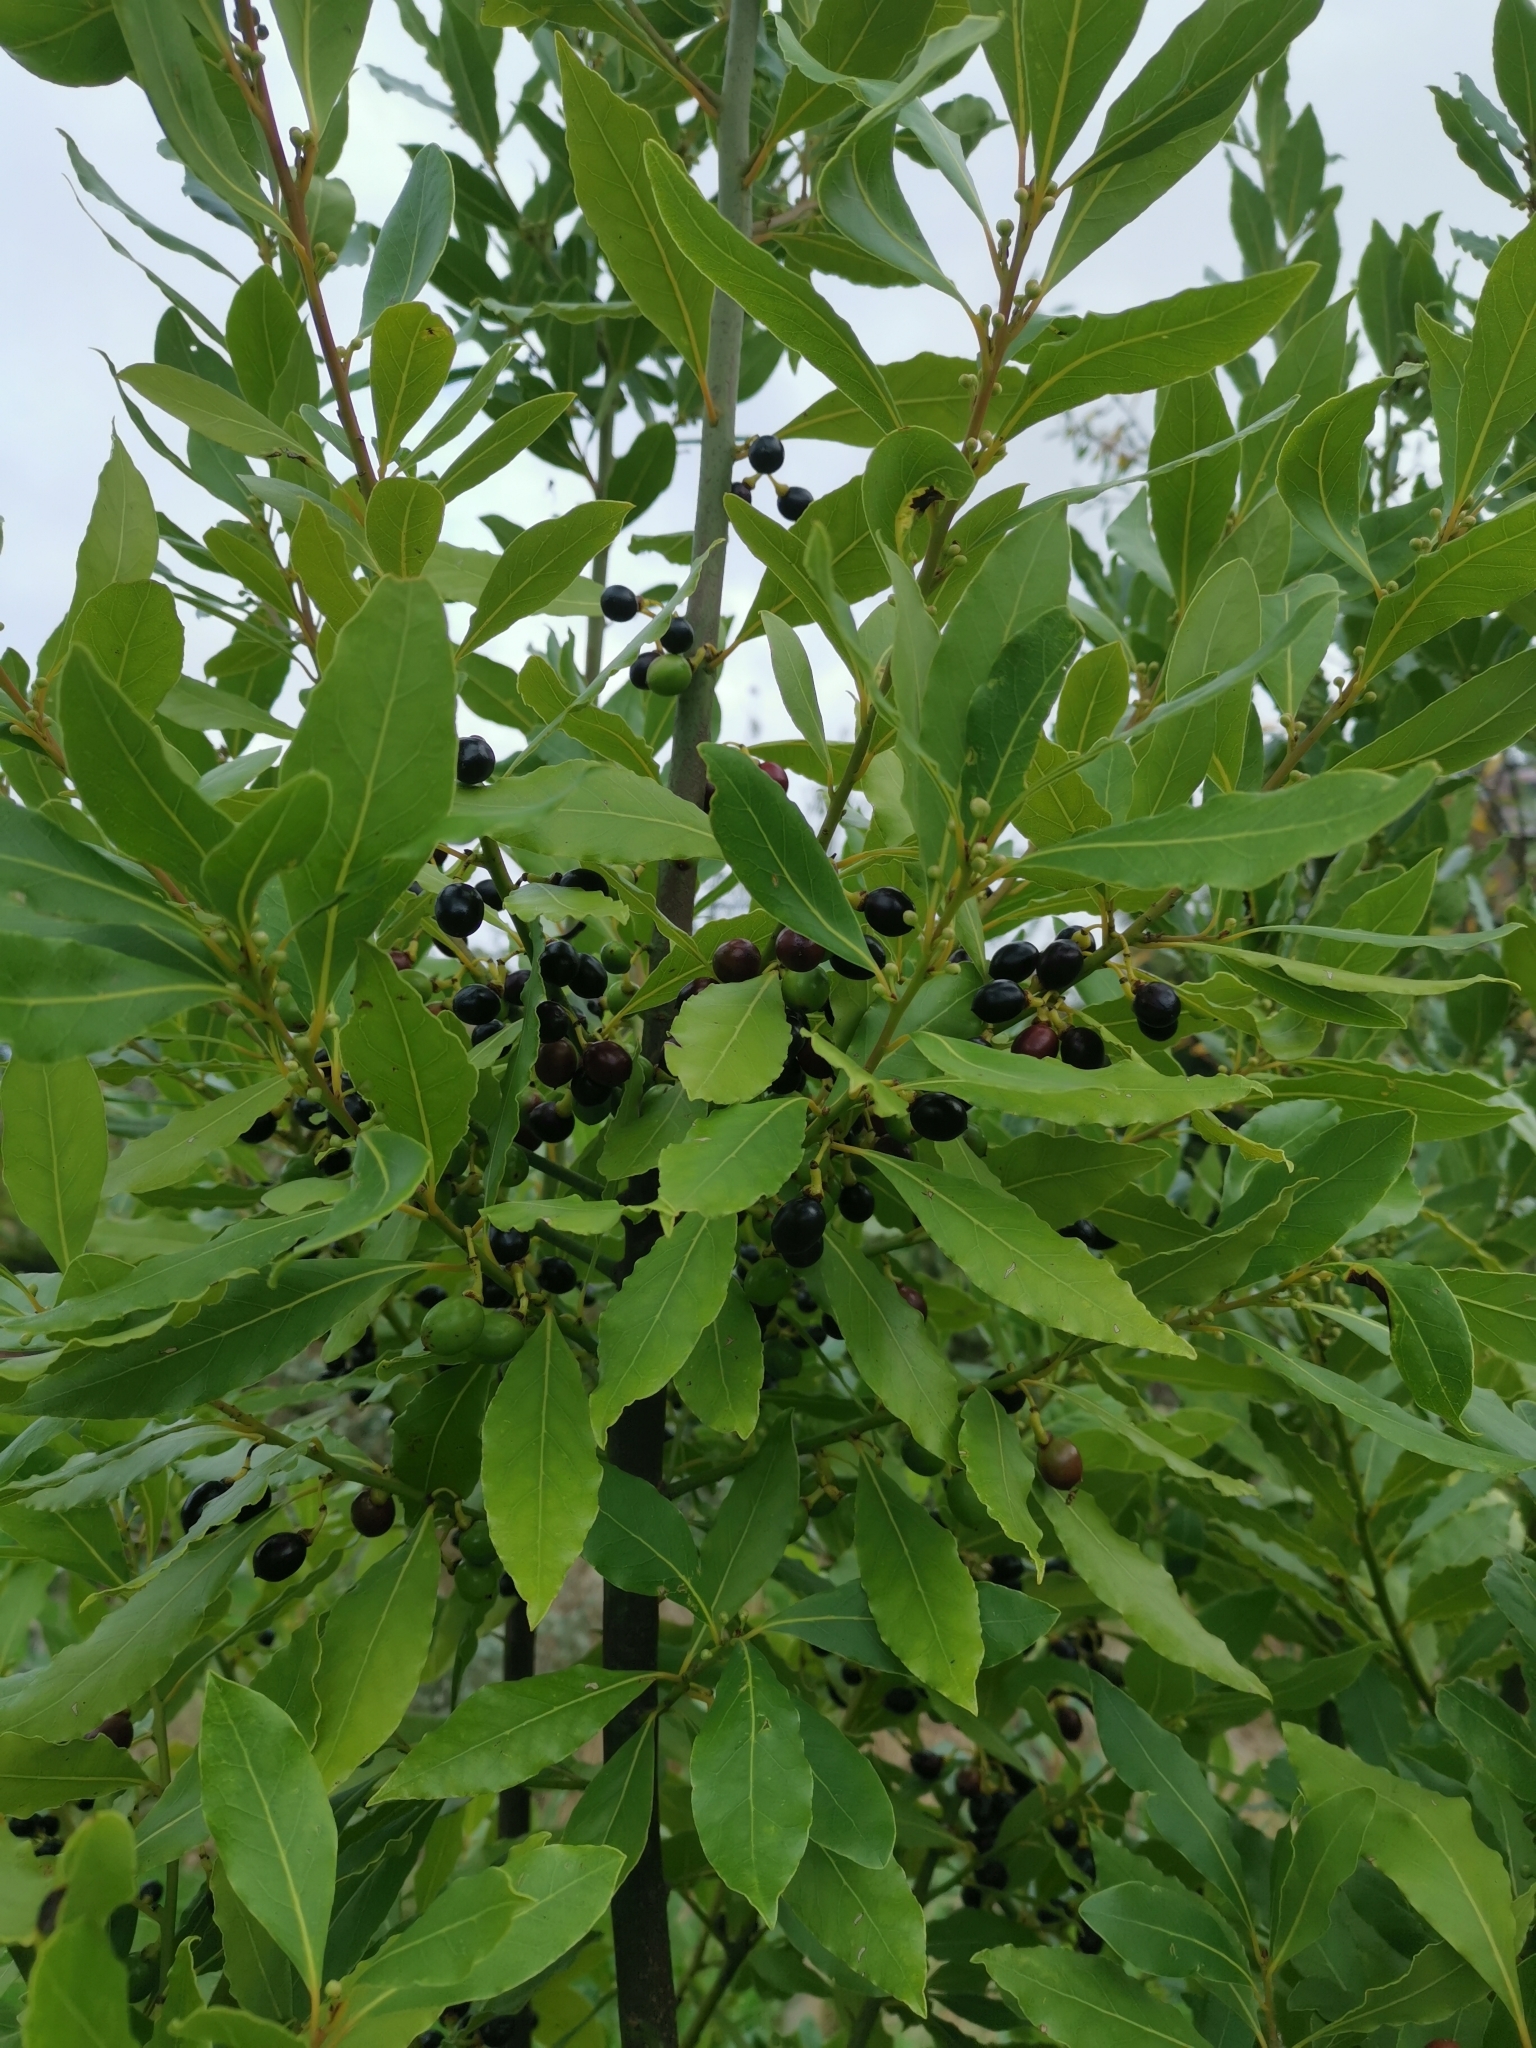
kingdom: Plantae
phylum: Tracheophyta
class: Magnoliopsida
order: Laurales
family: Lauraceae
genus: Laurus
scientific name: Laurus nobilis
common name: Bay
